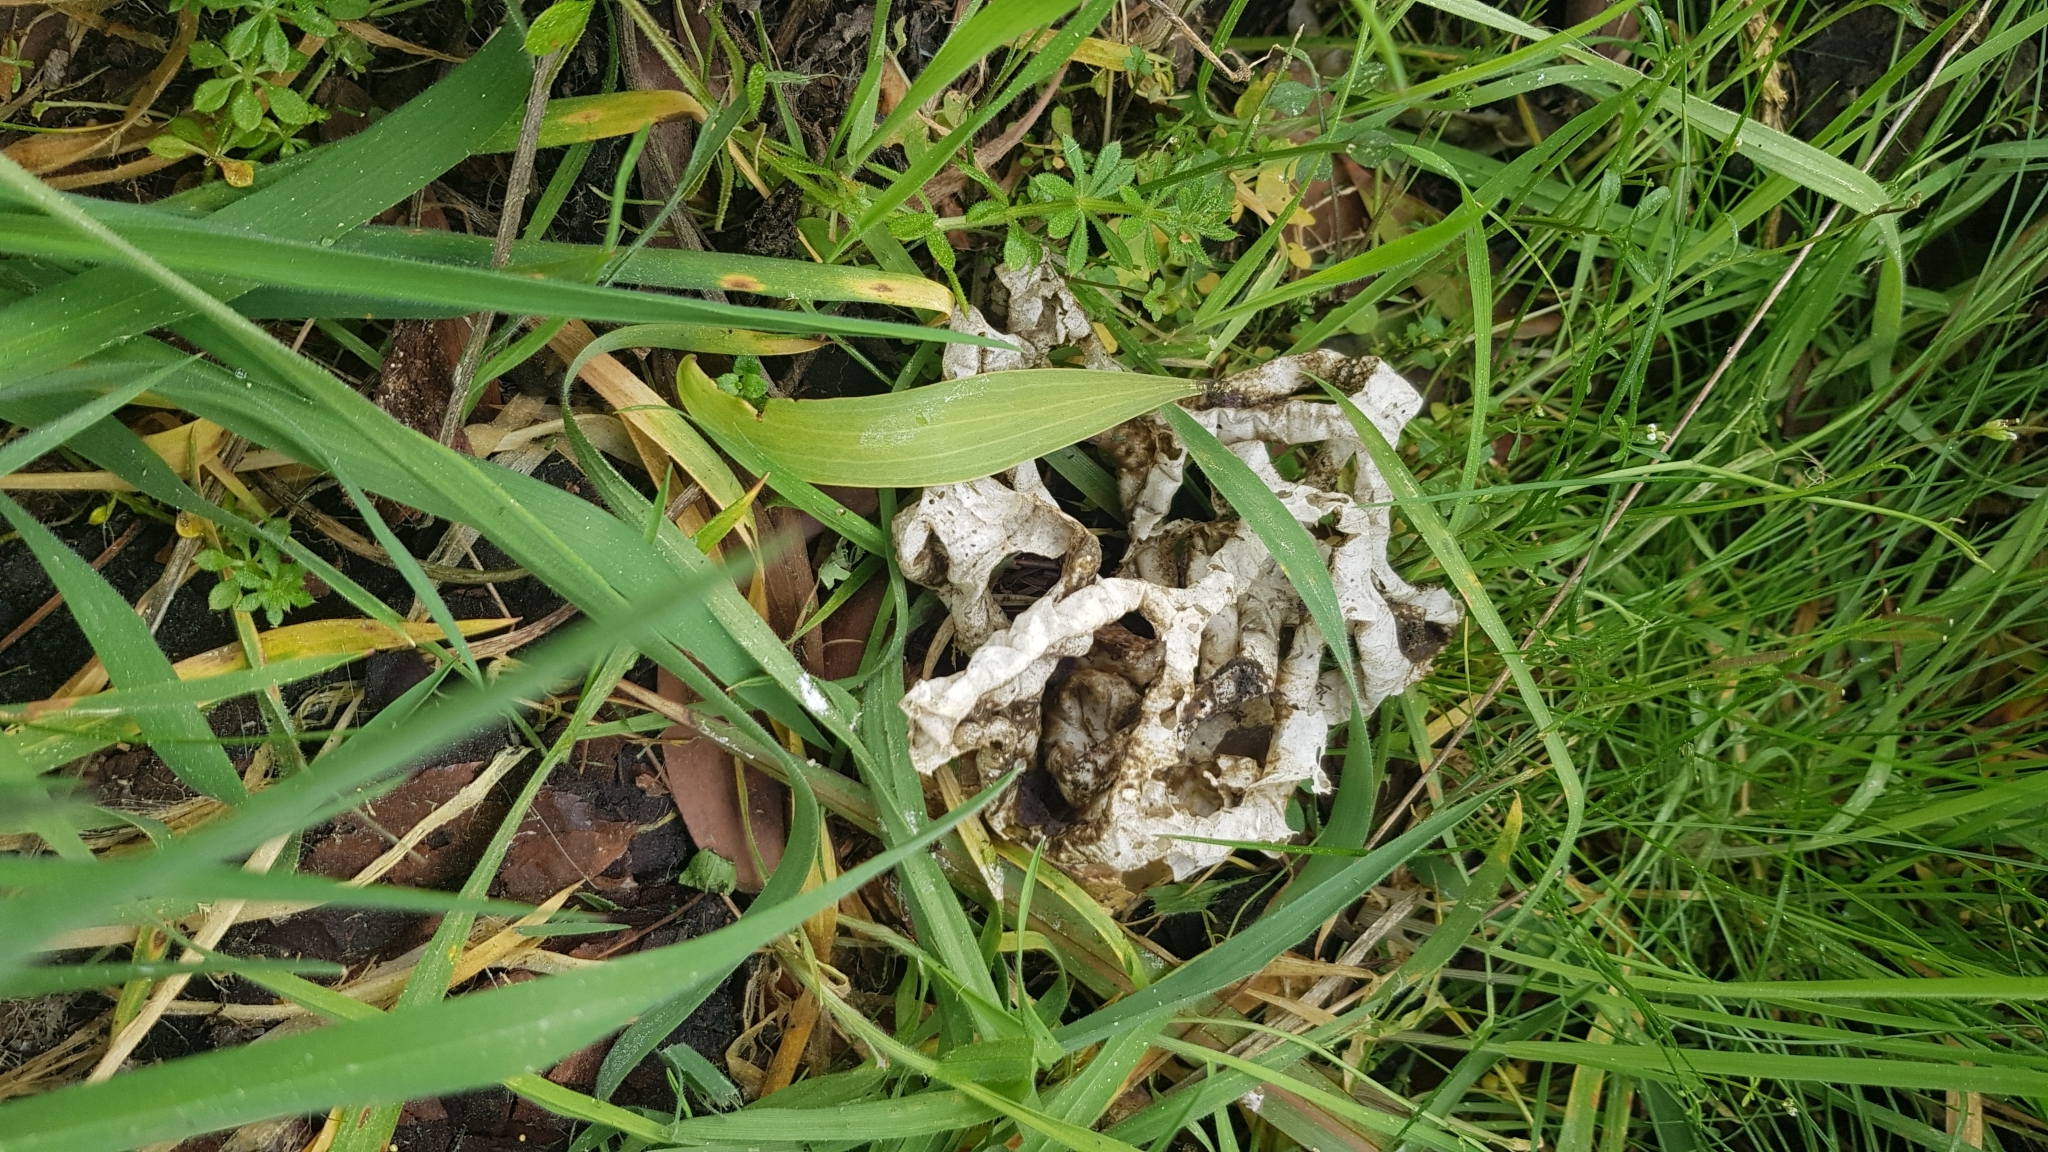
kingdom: Fungi
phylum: Basidiomycota
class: Agaricomycetes
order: Phallales
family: Phallaceae
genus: Ileodictyon
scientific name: Ileodictyon cibarium
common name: Basket fungus
